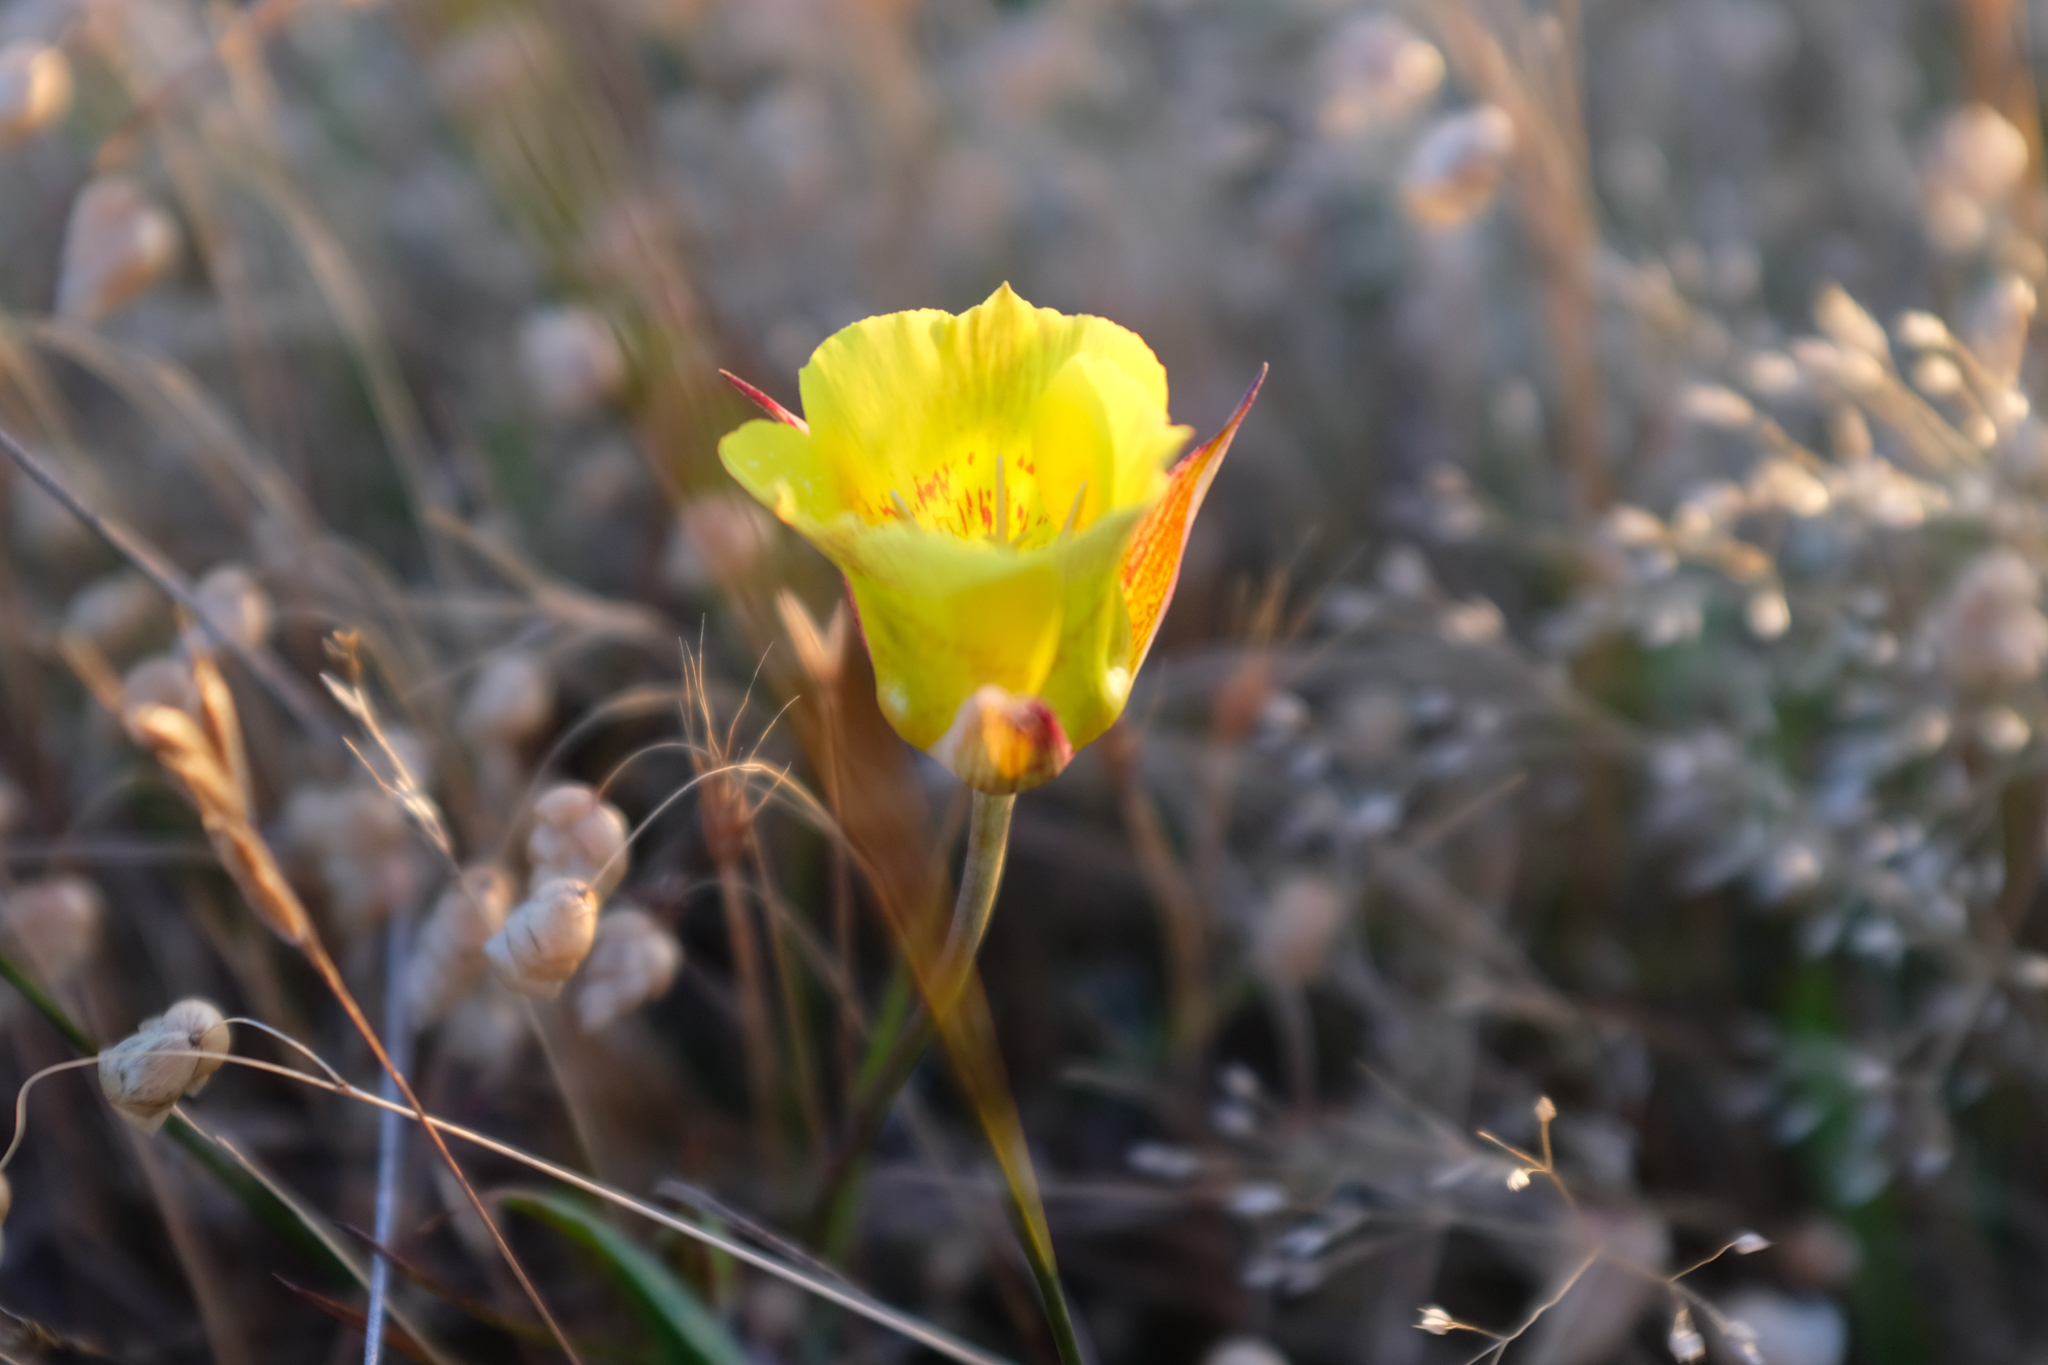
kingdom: Plantae
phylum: Tracheophyta
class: Liliopsida
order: Liliales
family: Liliaceae
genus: Calochortus
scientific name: Calochortus luteus
